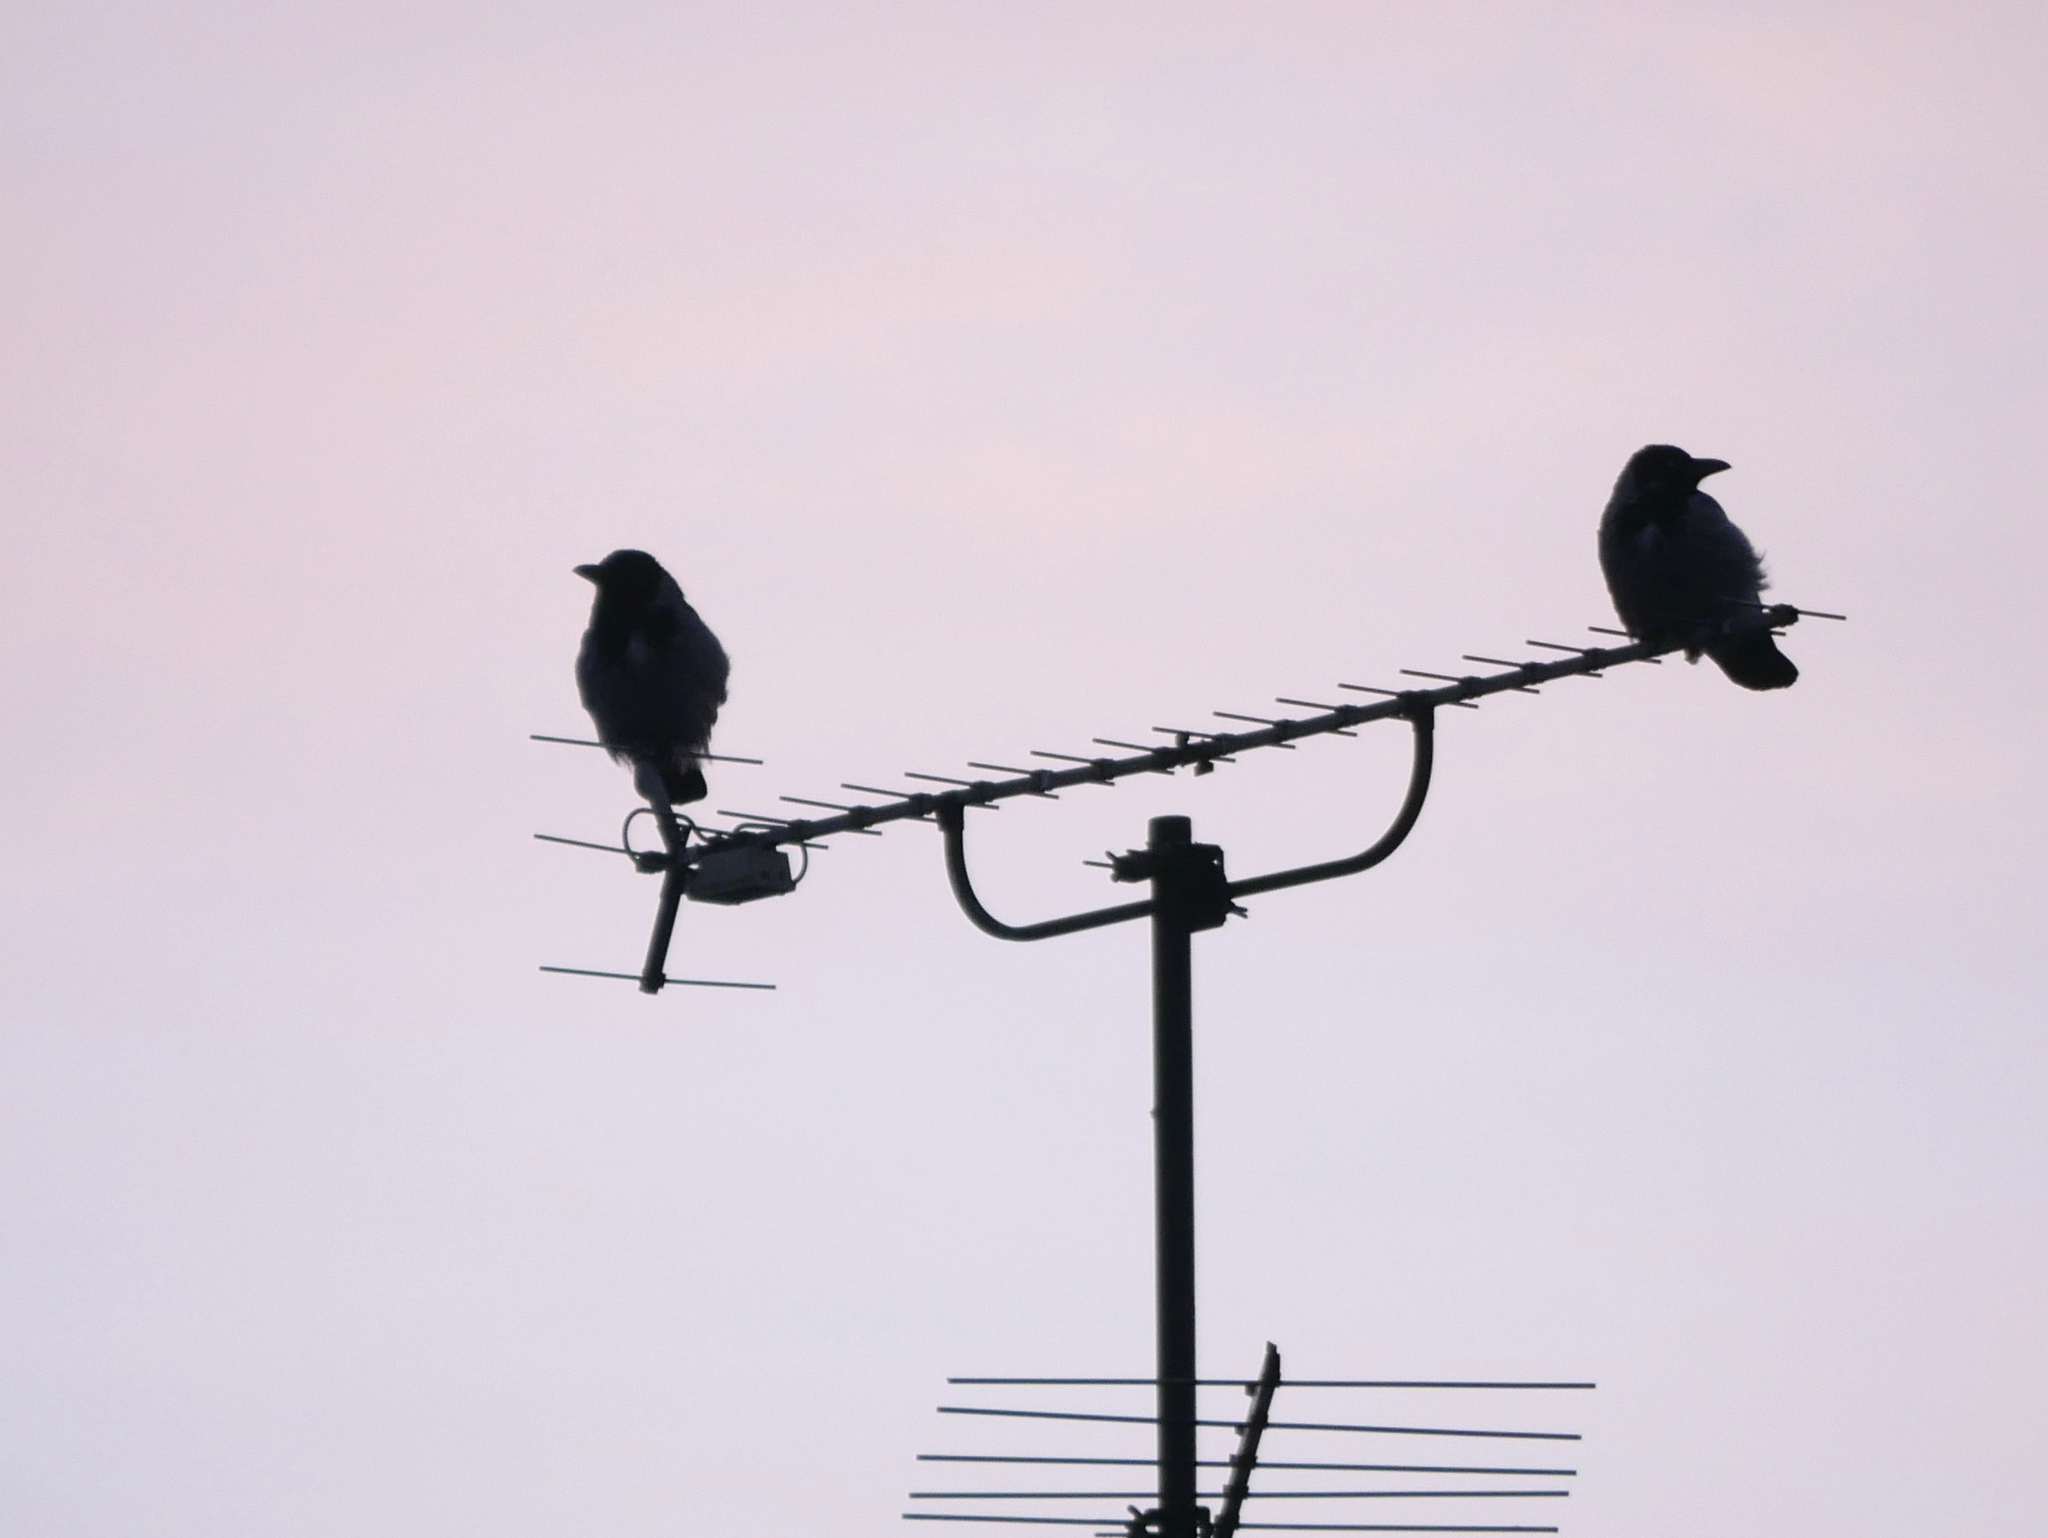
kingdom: Animalia
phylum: Chordata
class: Aves
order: Passeriformes
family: Corvidae
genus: Corvus
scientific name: Corvus cornix
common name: Hooded crow
